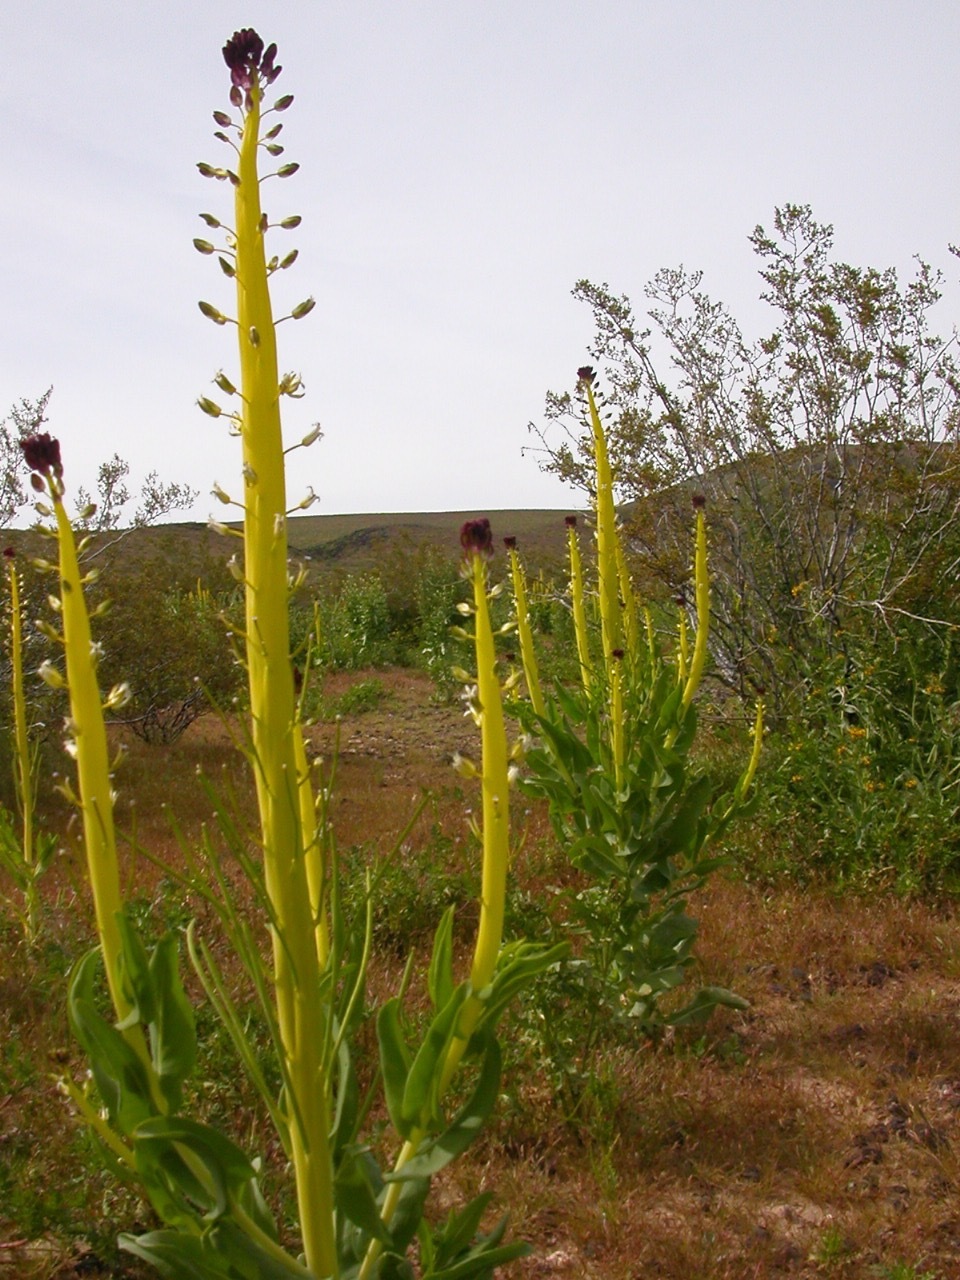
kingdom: Plantae
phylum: Tracheophyta
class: Magnoliopsida
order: Brassicales
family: Brassicaceae
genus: Streptanthus
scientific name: Streptanthus inflatus
